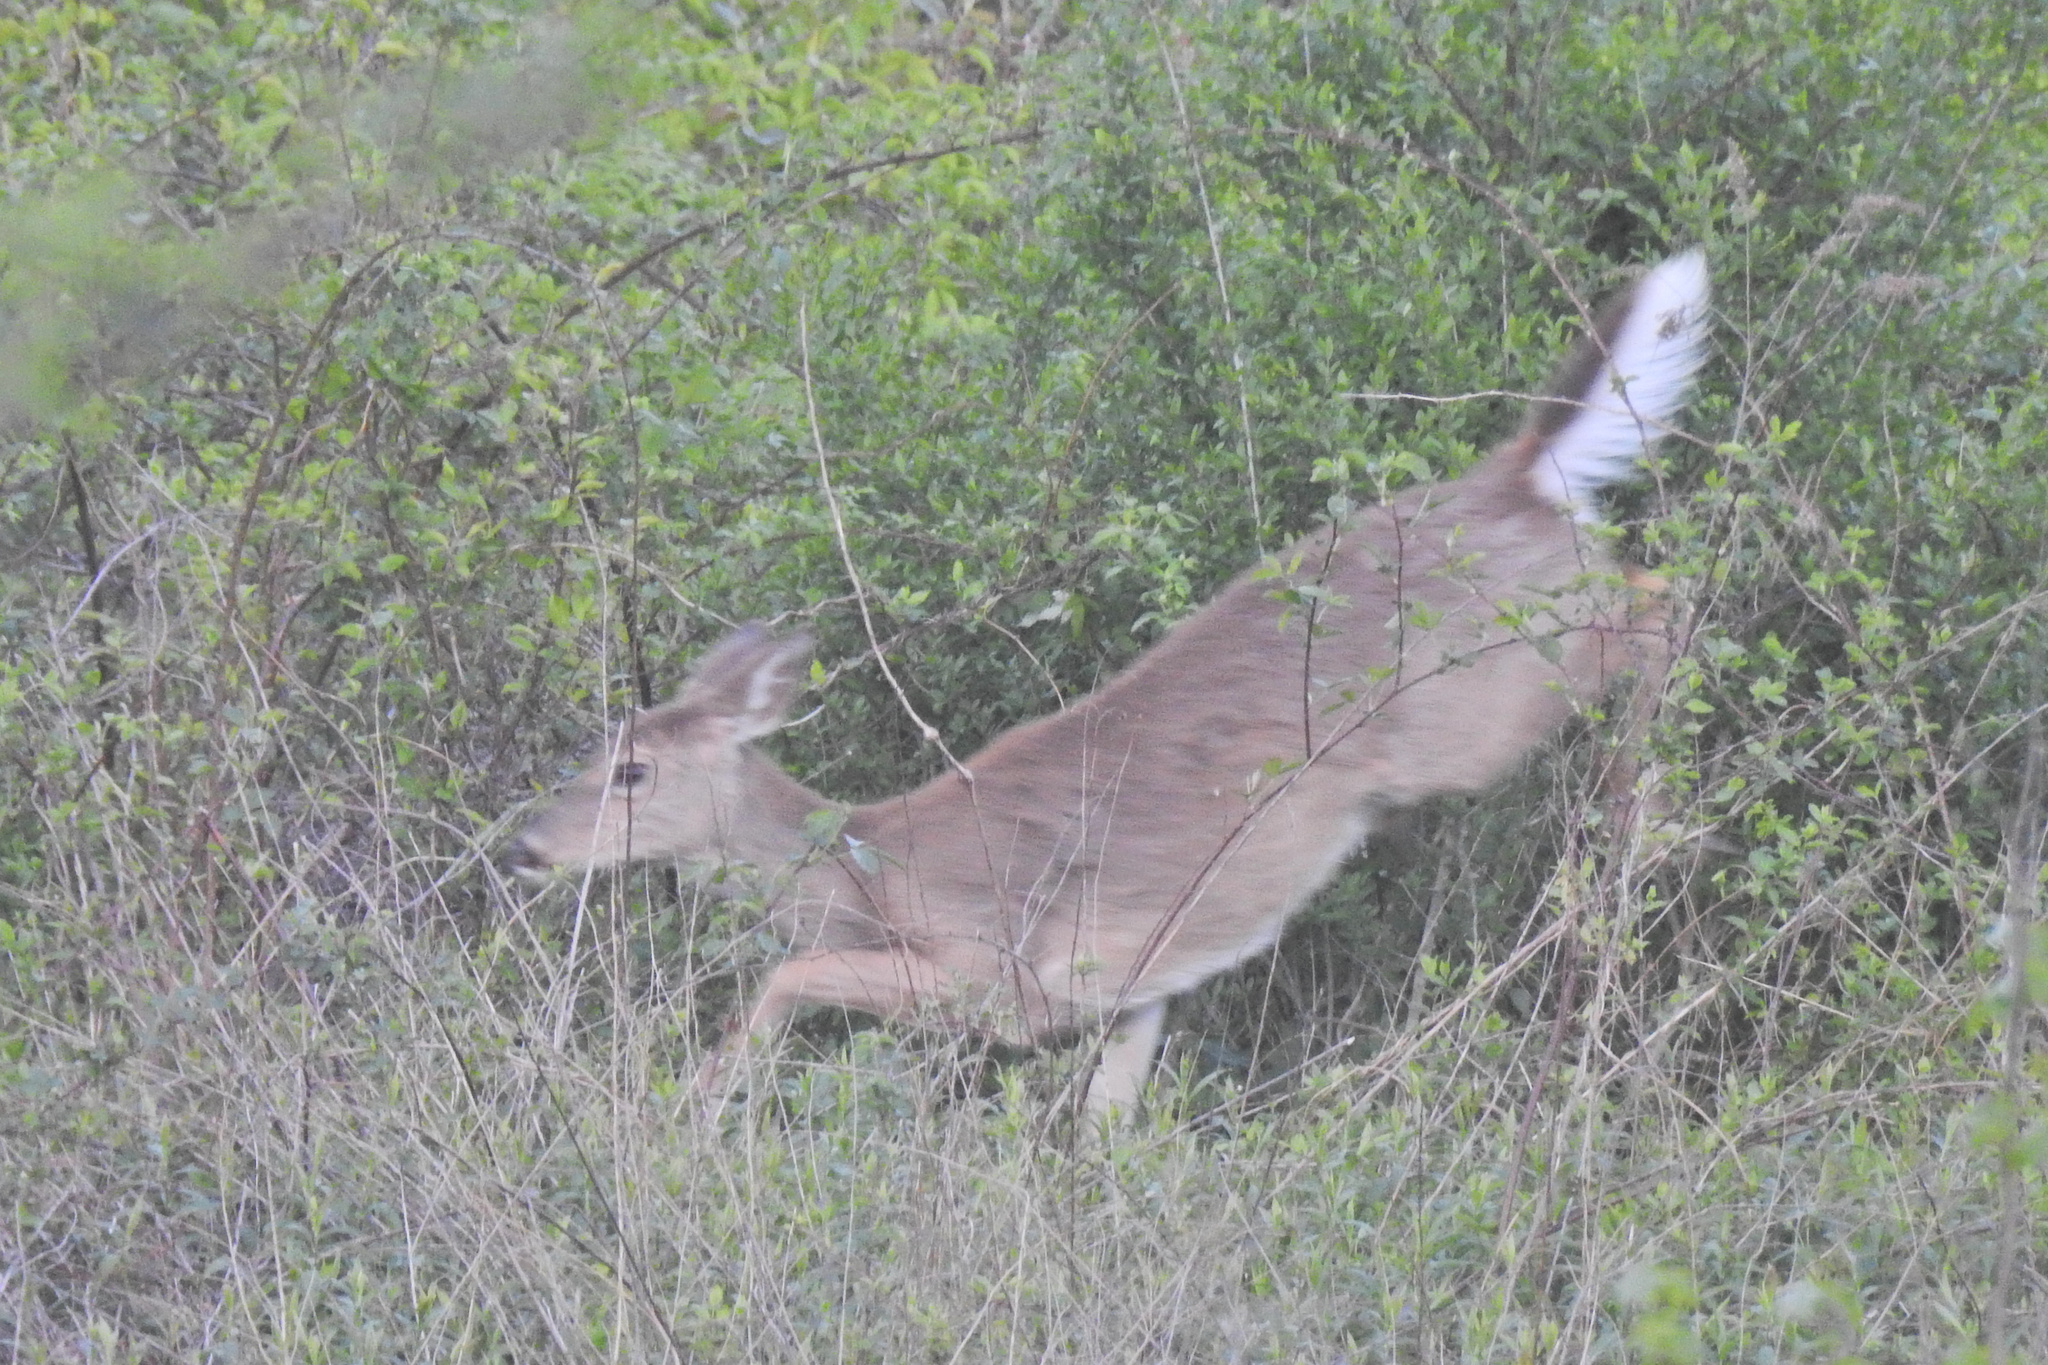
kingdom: Animalia
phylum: Chordata
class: Mammalia
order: Artiodactyla
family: Cervidae
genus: Odocoileus
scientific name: Odocoileus virginianus
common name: White-tailed deer
